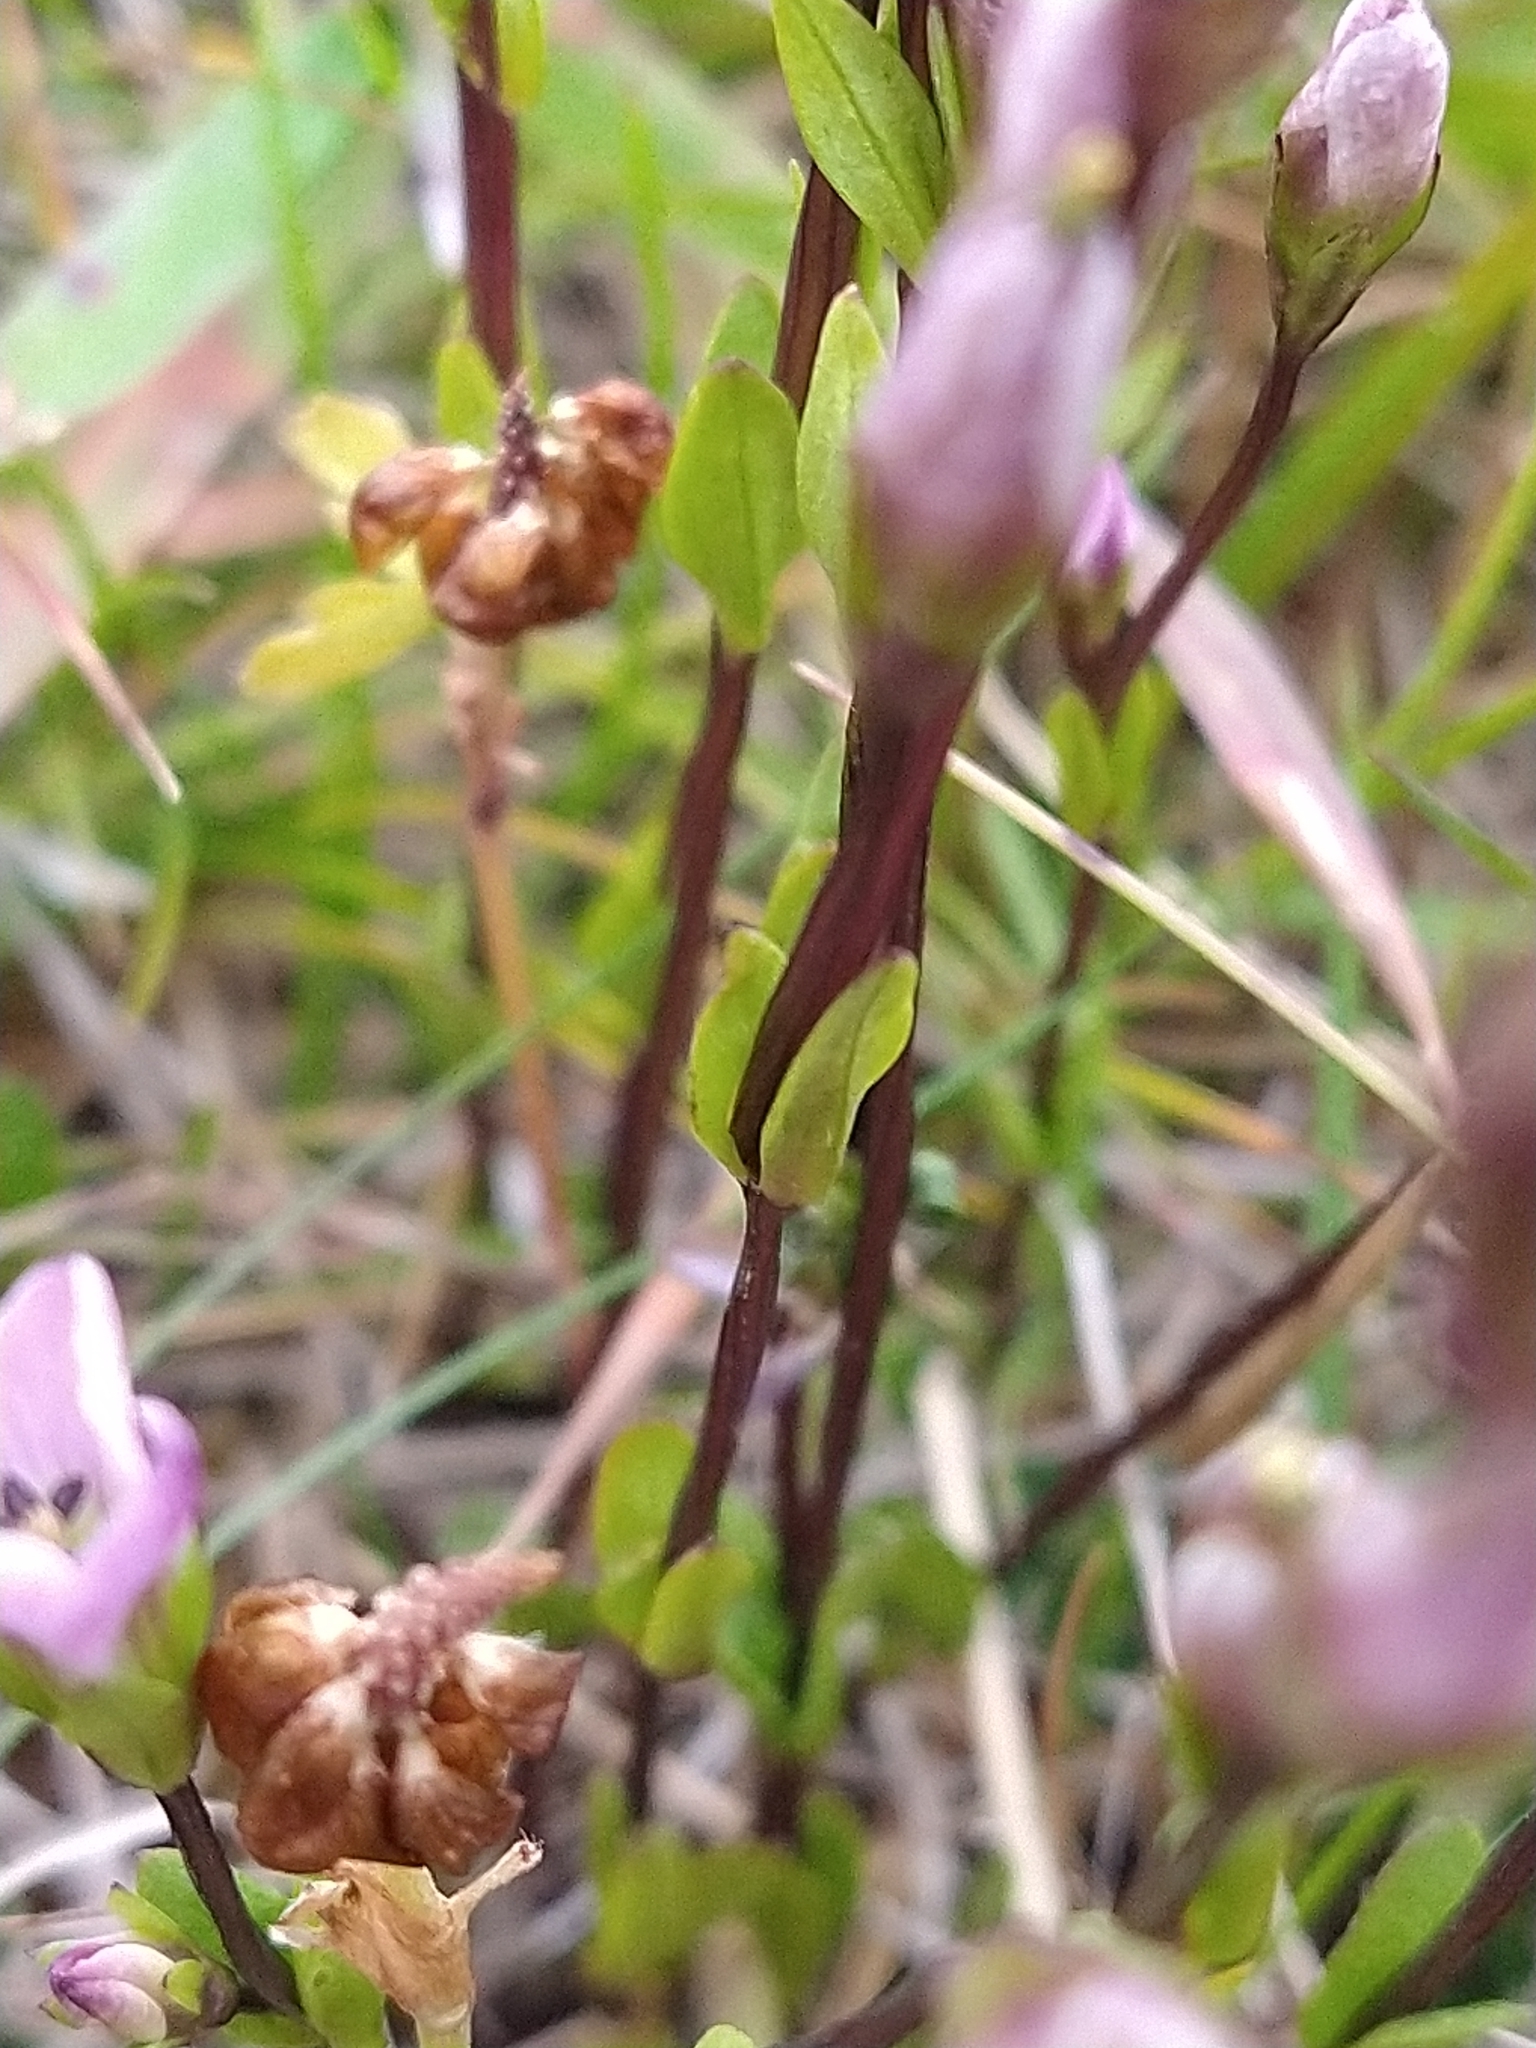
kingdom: Plantae
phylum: Tracheophyta
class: Magnoliopsida
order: Gentianales
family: Gentianaceae
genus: Gentianella
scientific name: Gentianella magellanica
